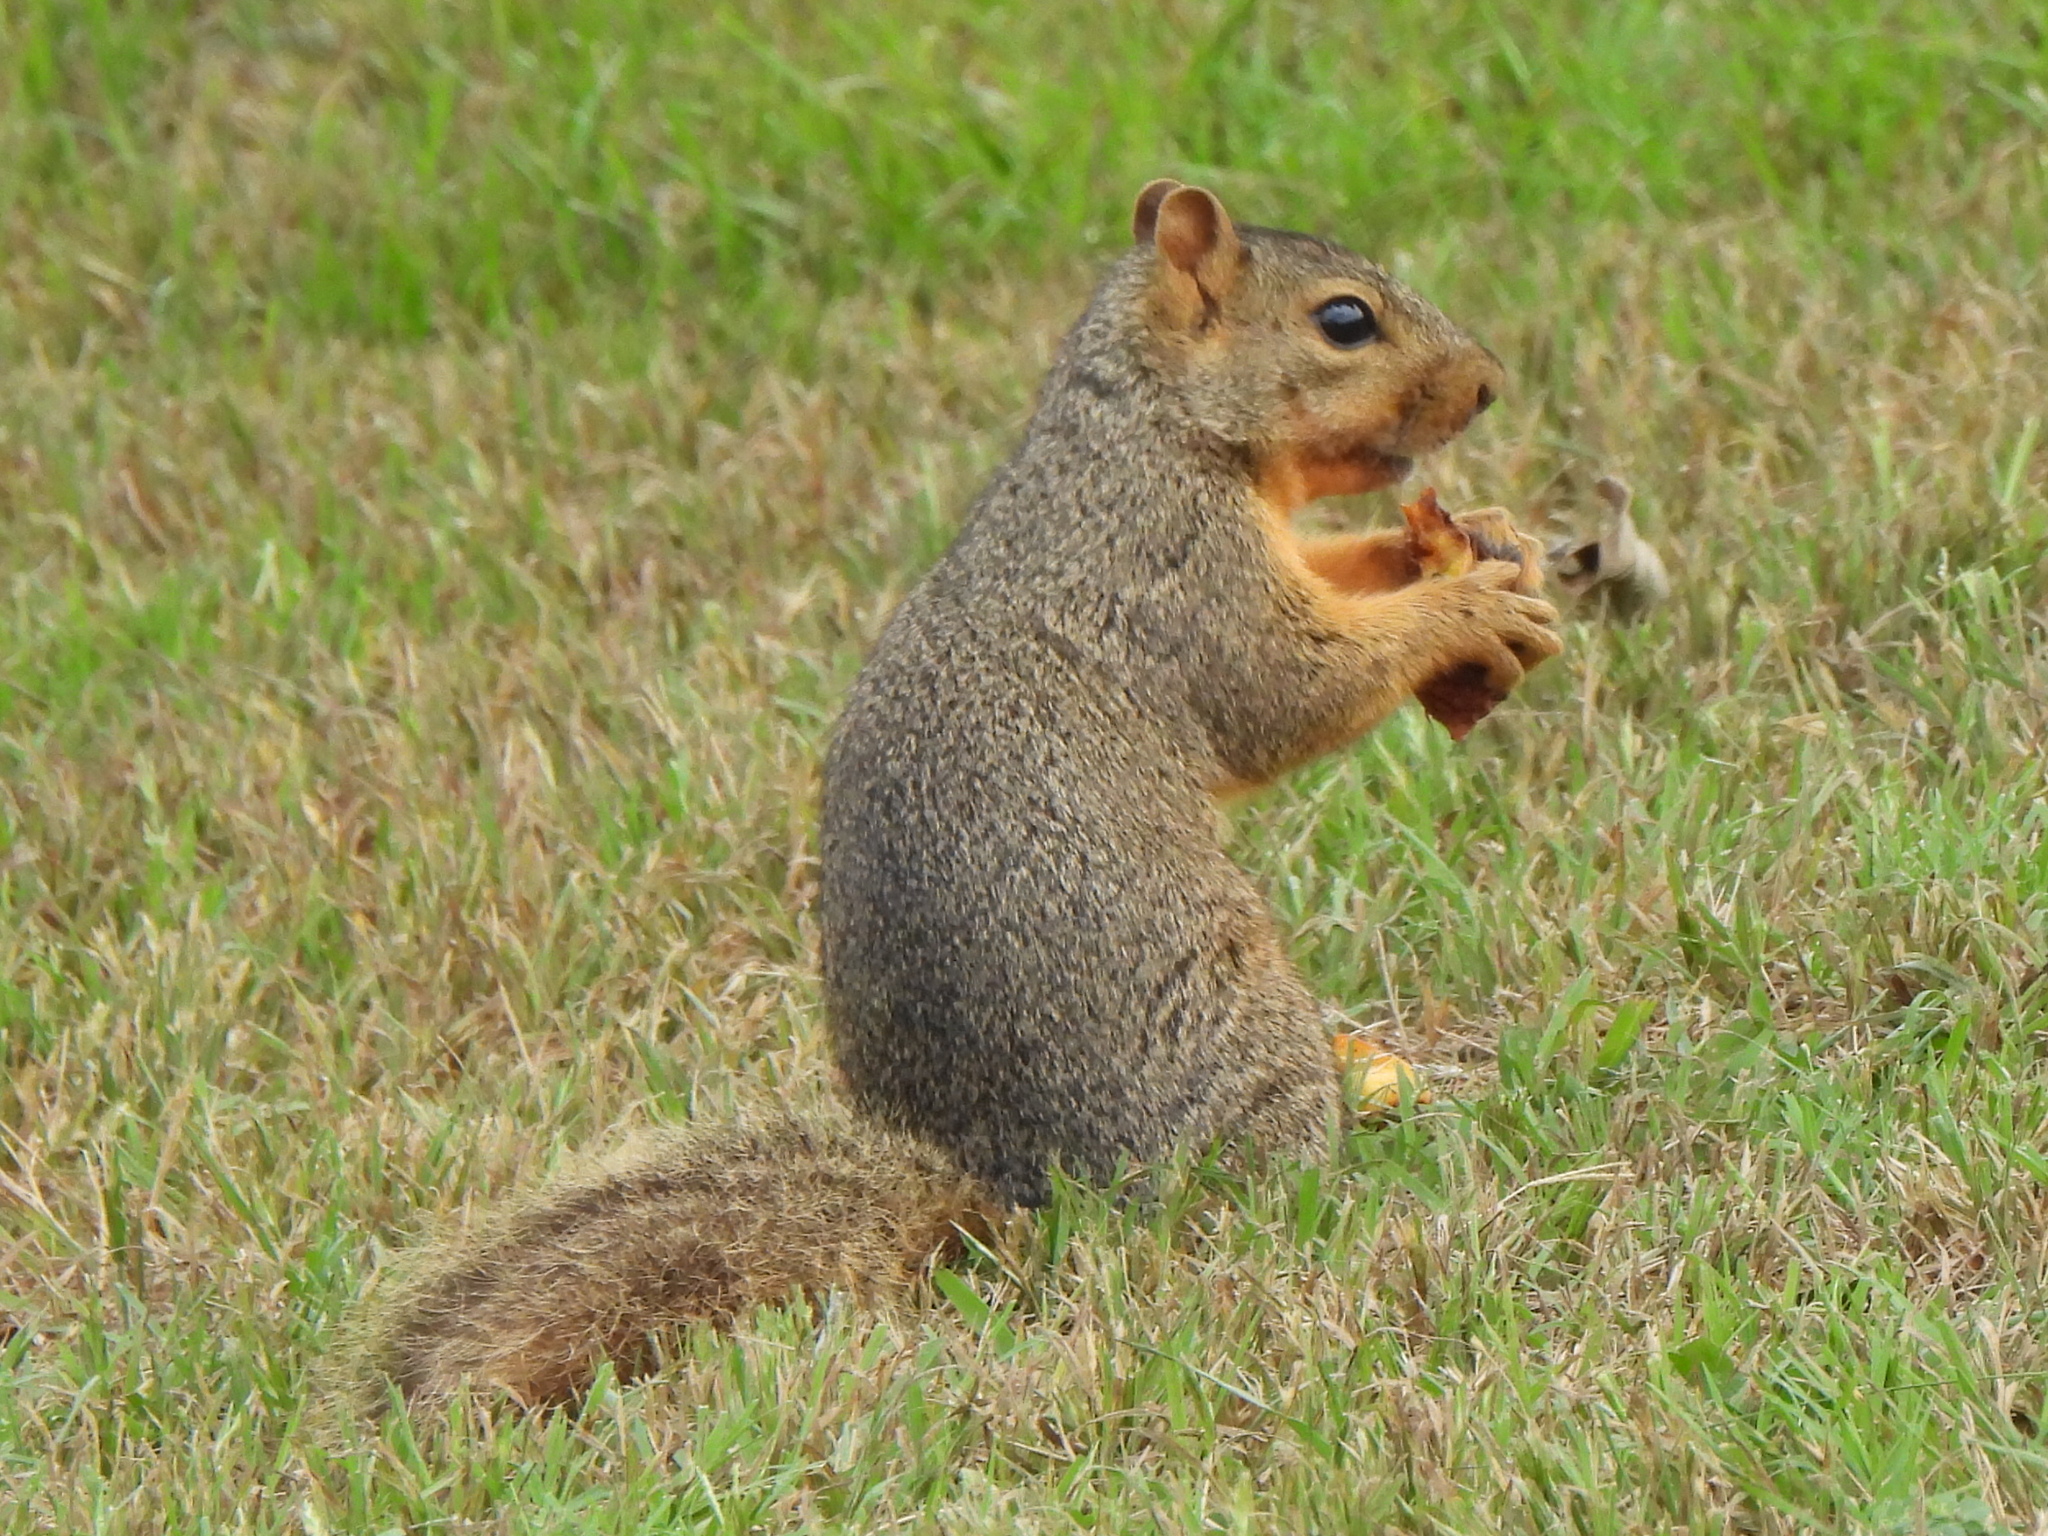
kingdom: Animalia
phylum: Chordata
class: Mammalia
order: Rodentia
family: Sciuridae
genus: Sciurus
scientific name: Sciurus niger
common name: Fox squirrel
